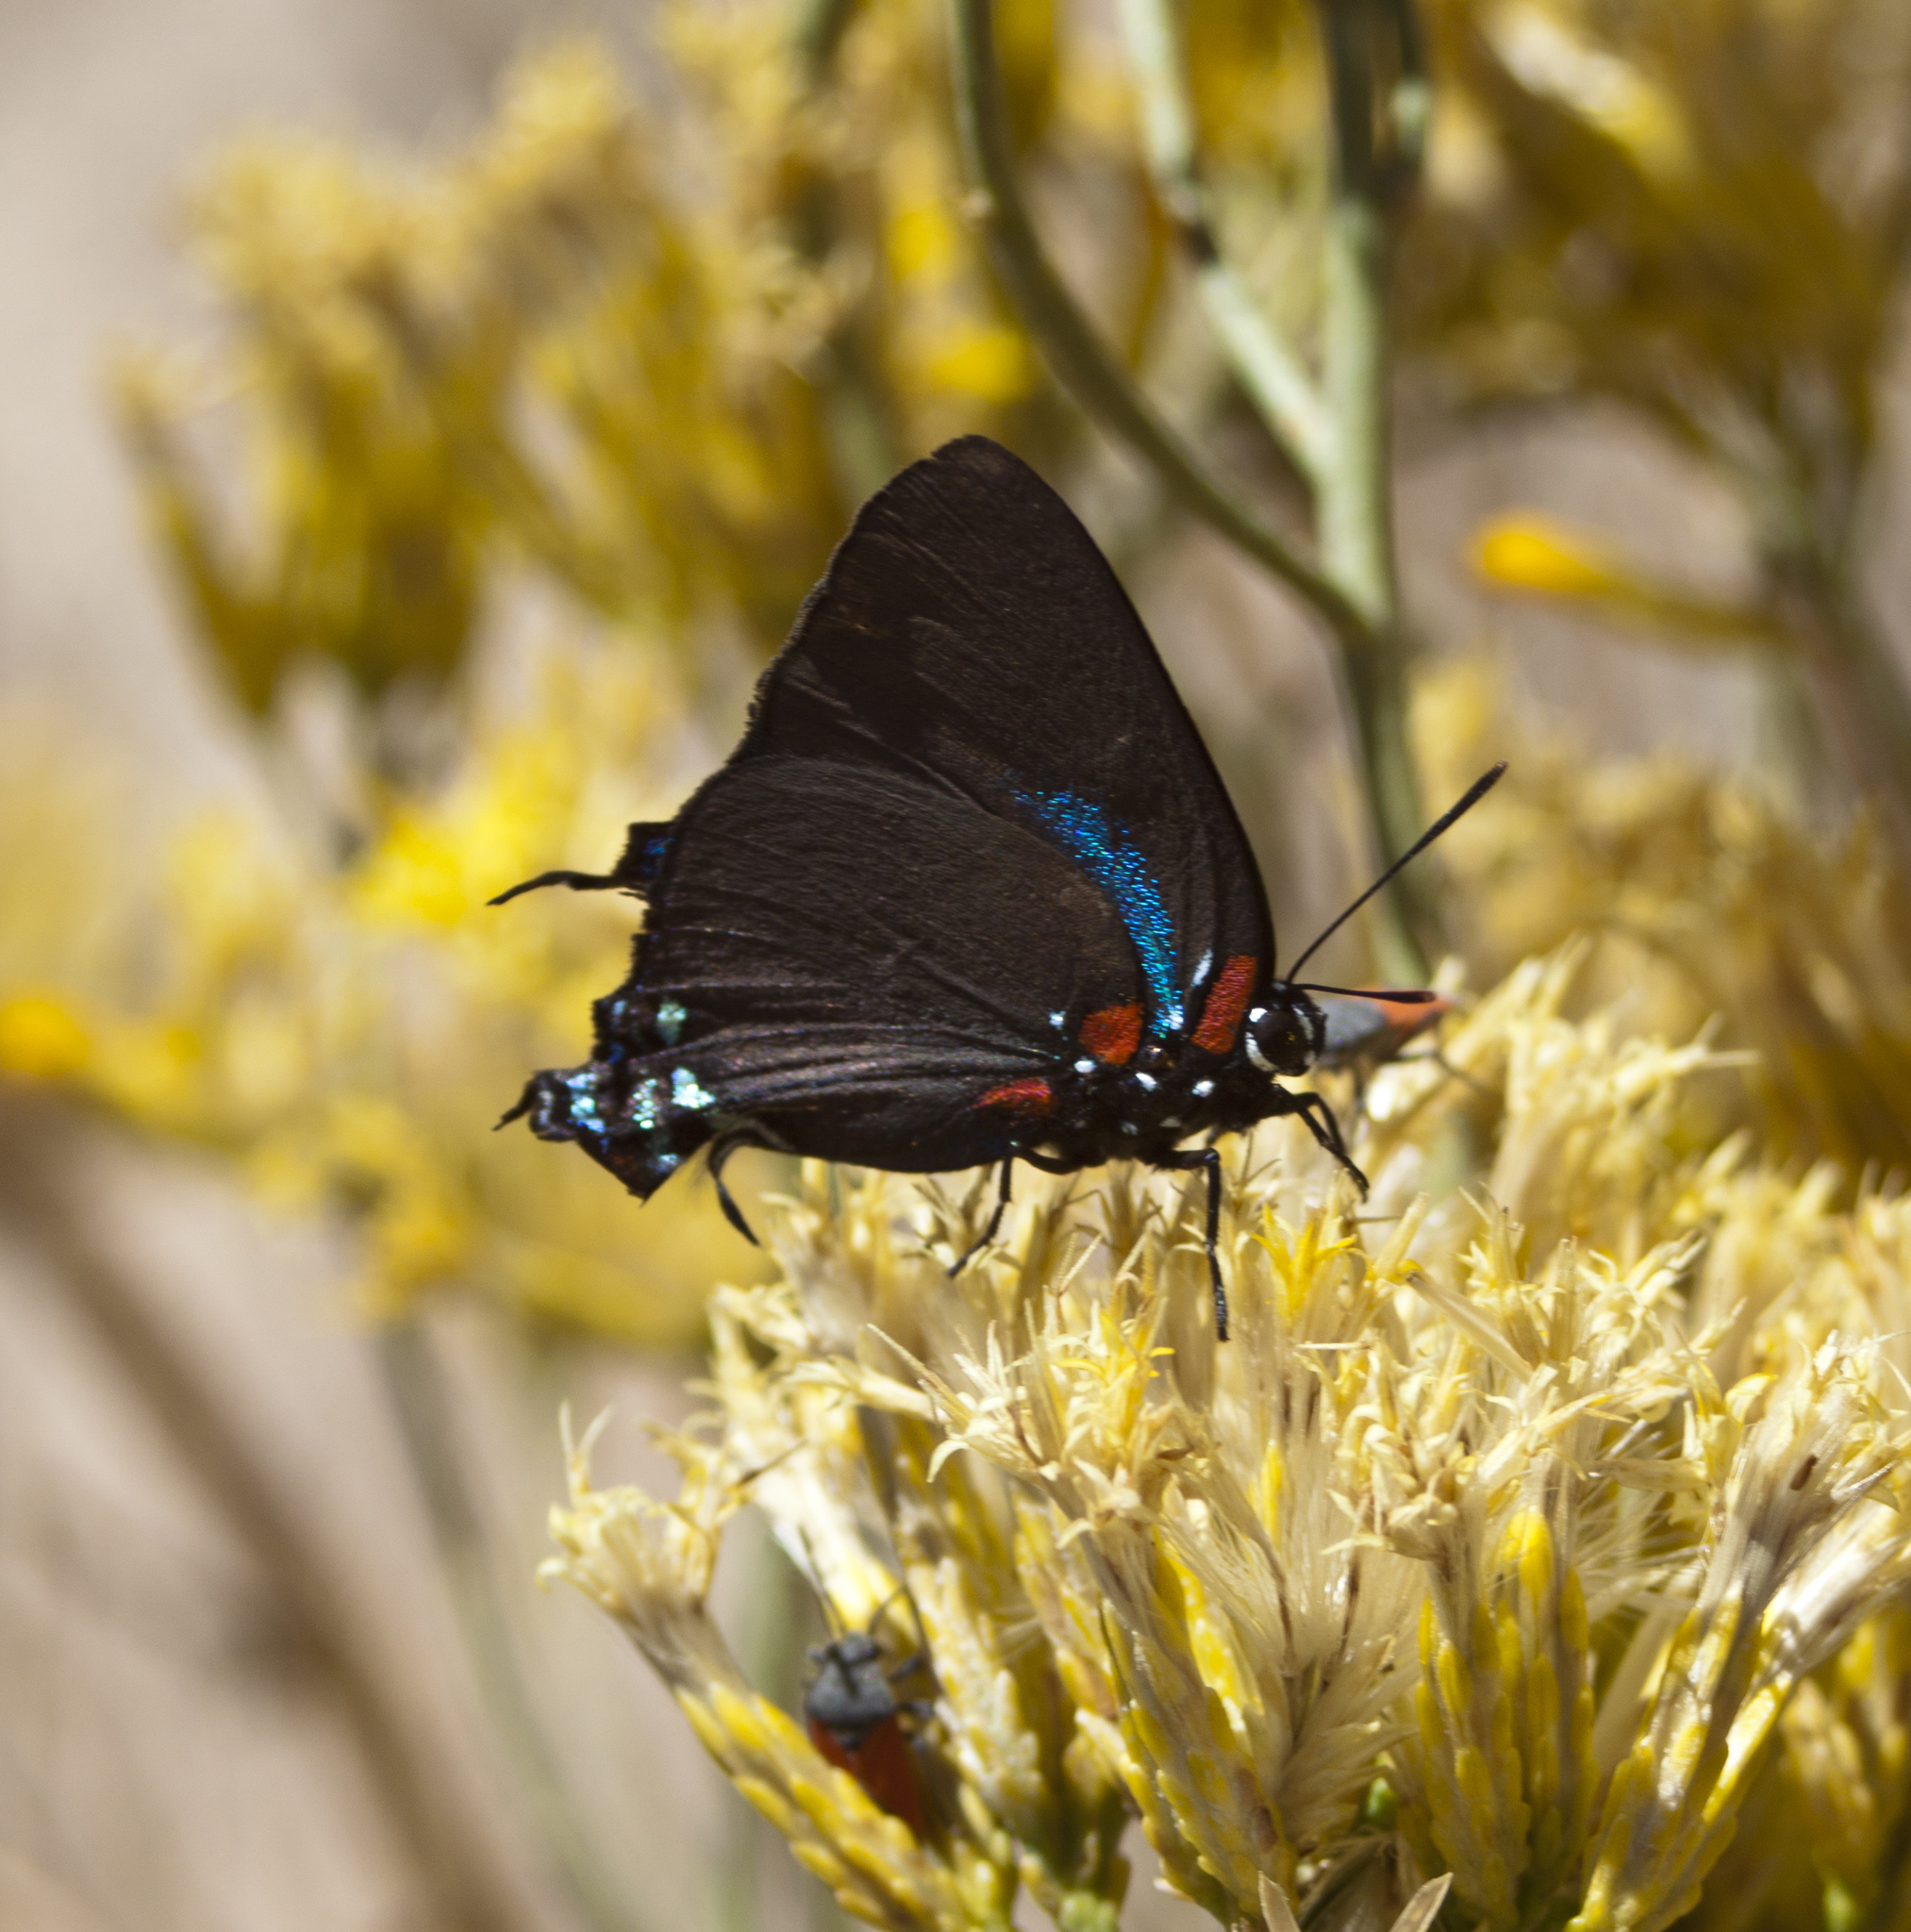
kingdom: Animalia
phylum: Arthropoda
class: Insecta
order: Lepidoptera
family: Lycaenidae
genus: Atlides
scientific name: Atlides halesus
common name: Great purple hairstreak
